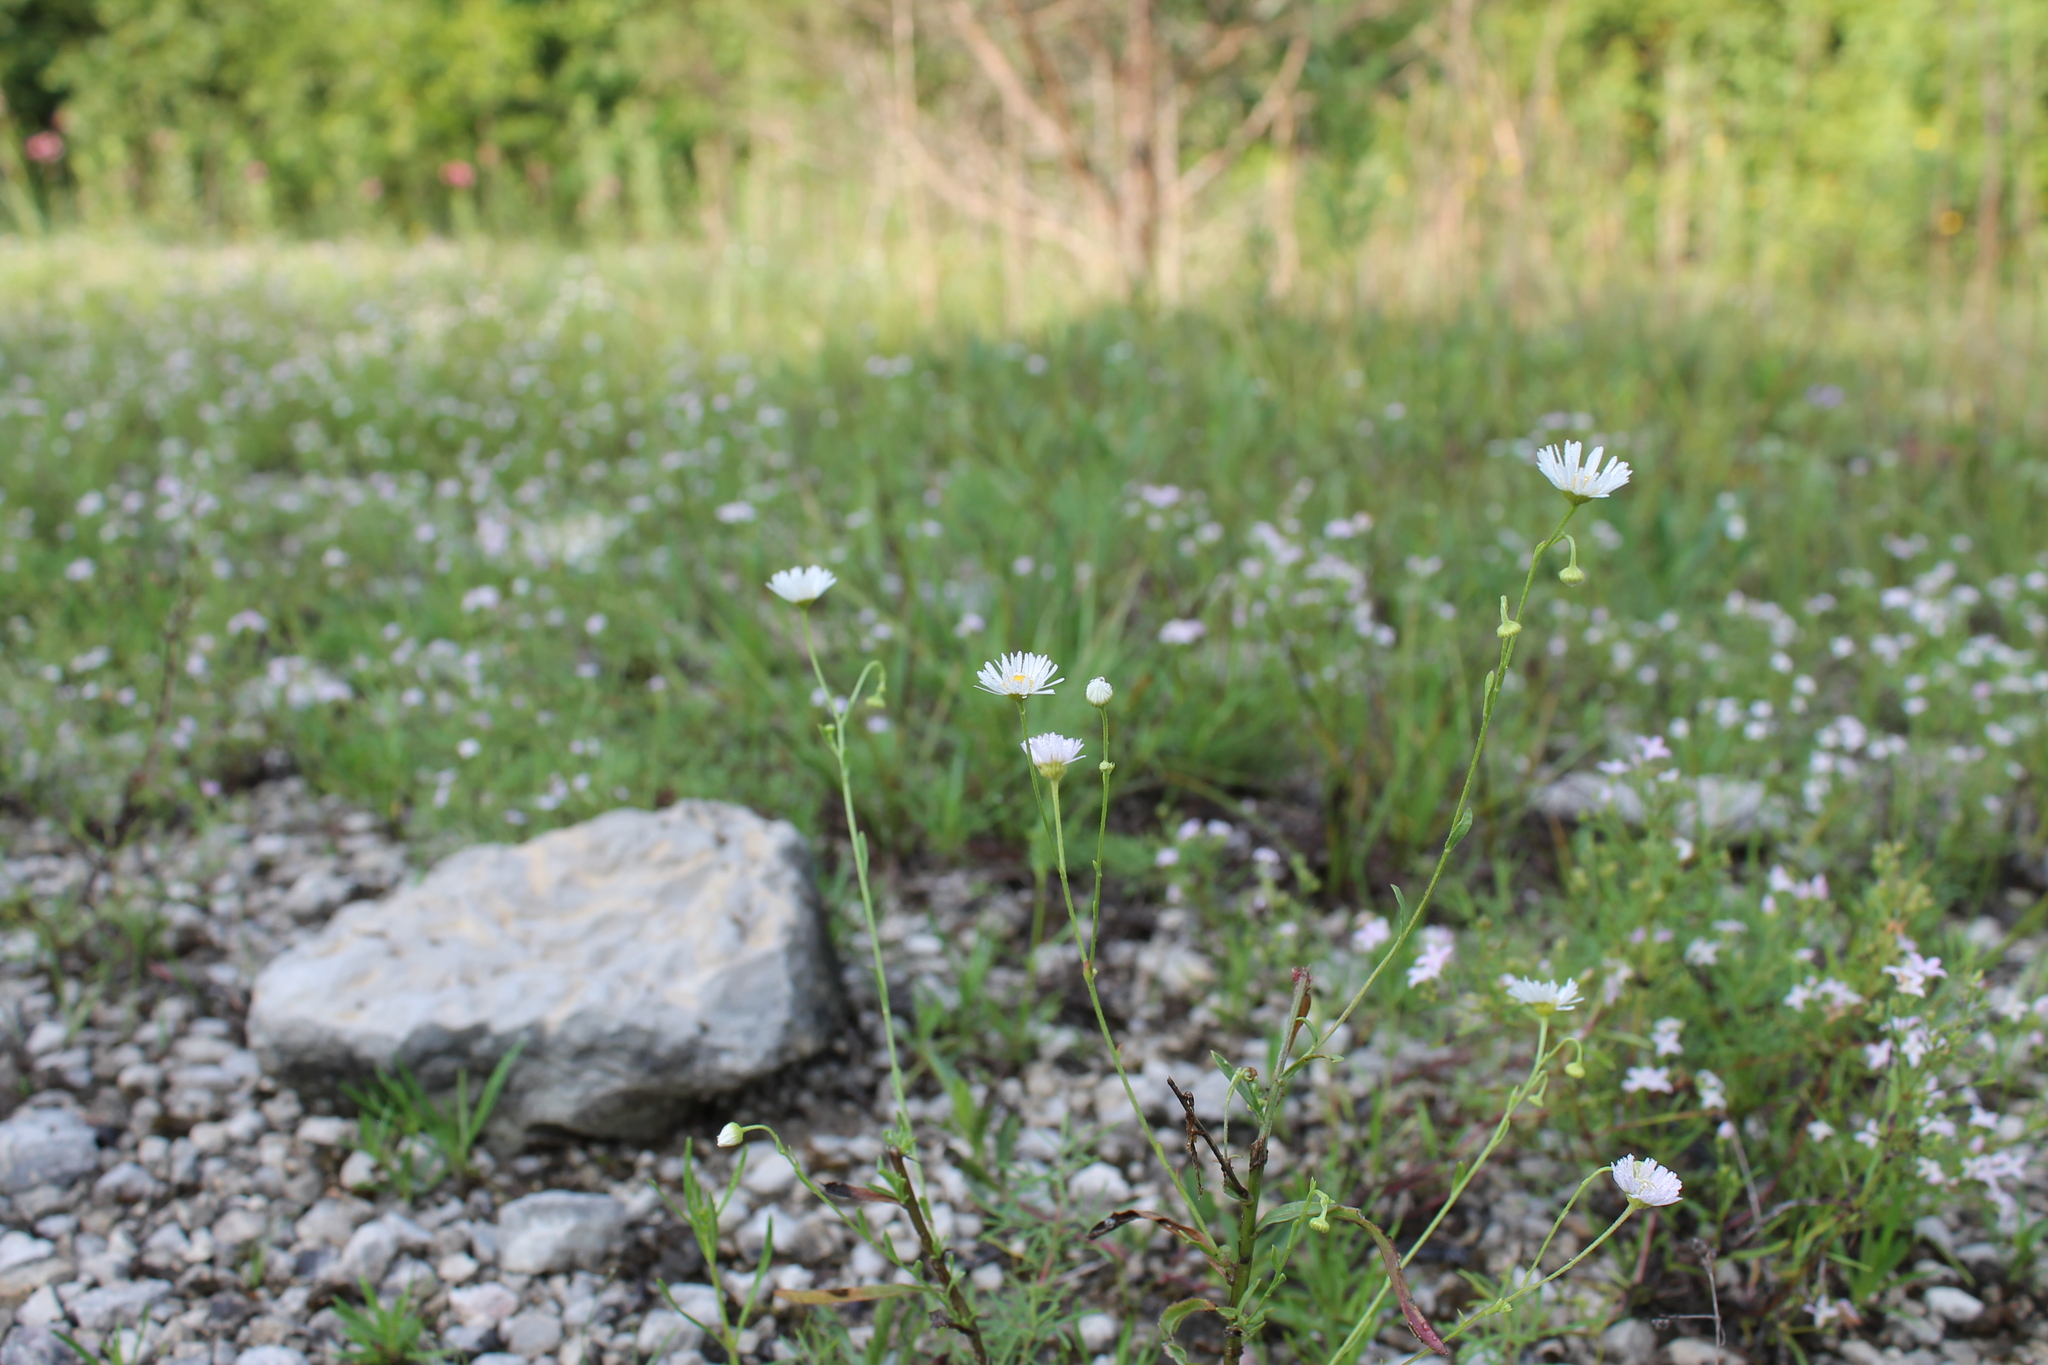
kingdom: Plantae
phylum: Tracheophyta
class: Magnoliopsida
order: Asterales
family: Asteraceae
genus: Erigeron
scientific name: Erigeron strigosus
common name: Common eastern fleabane
